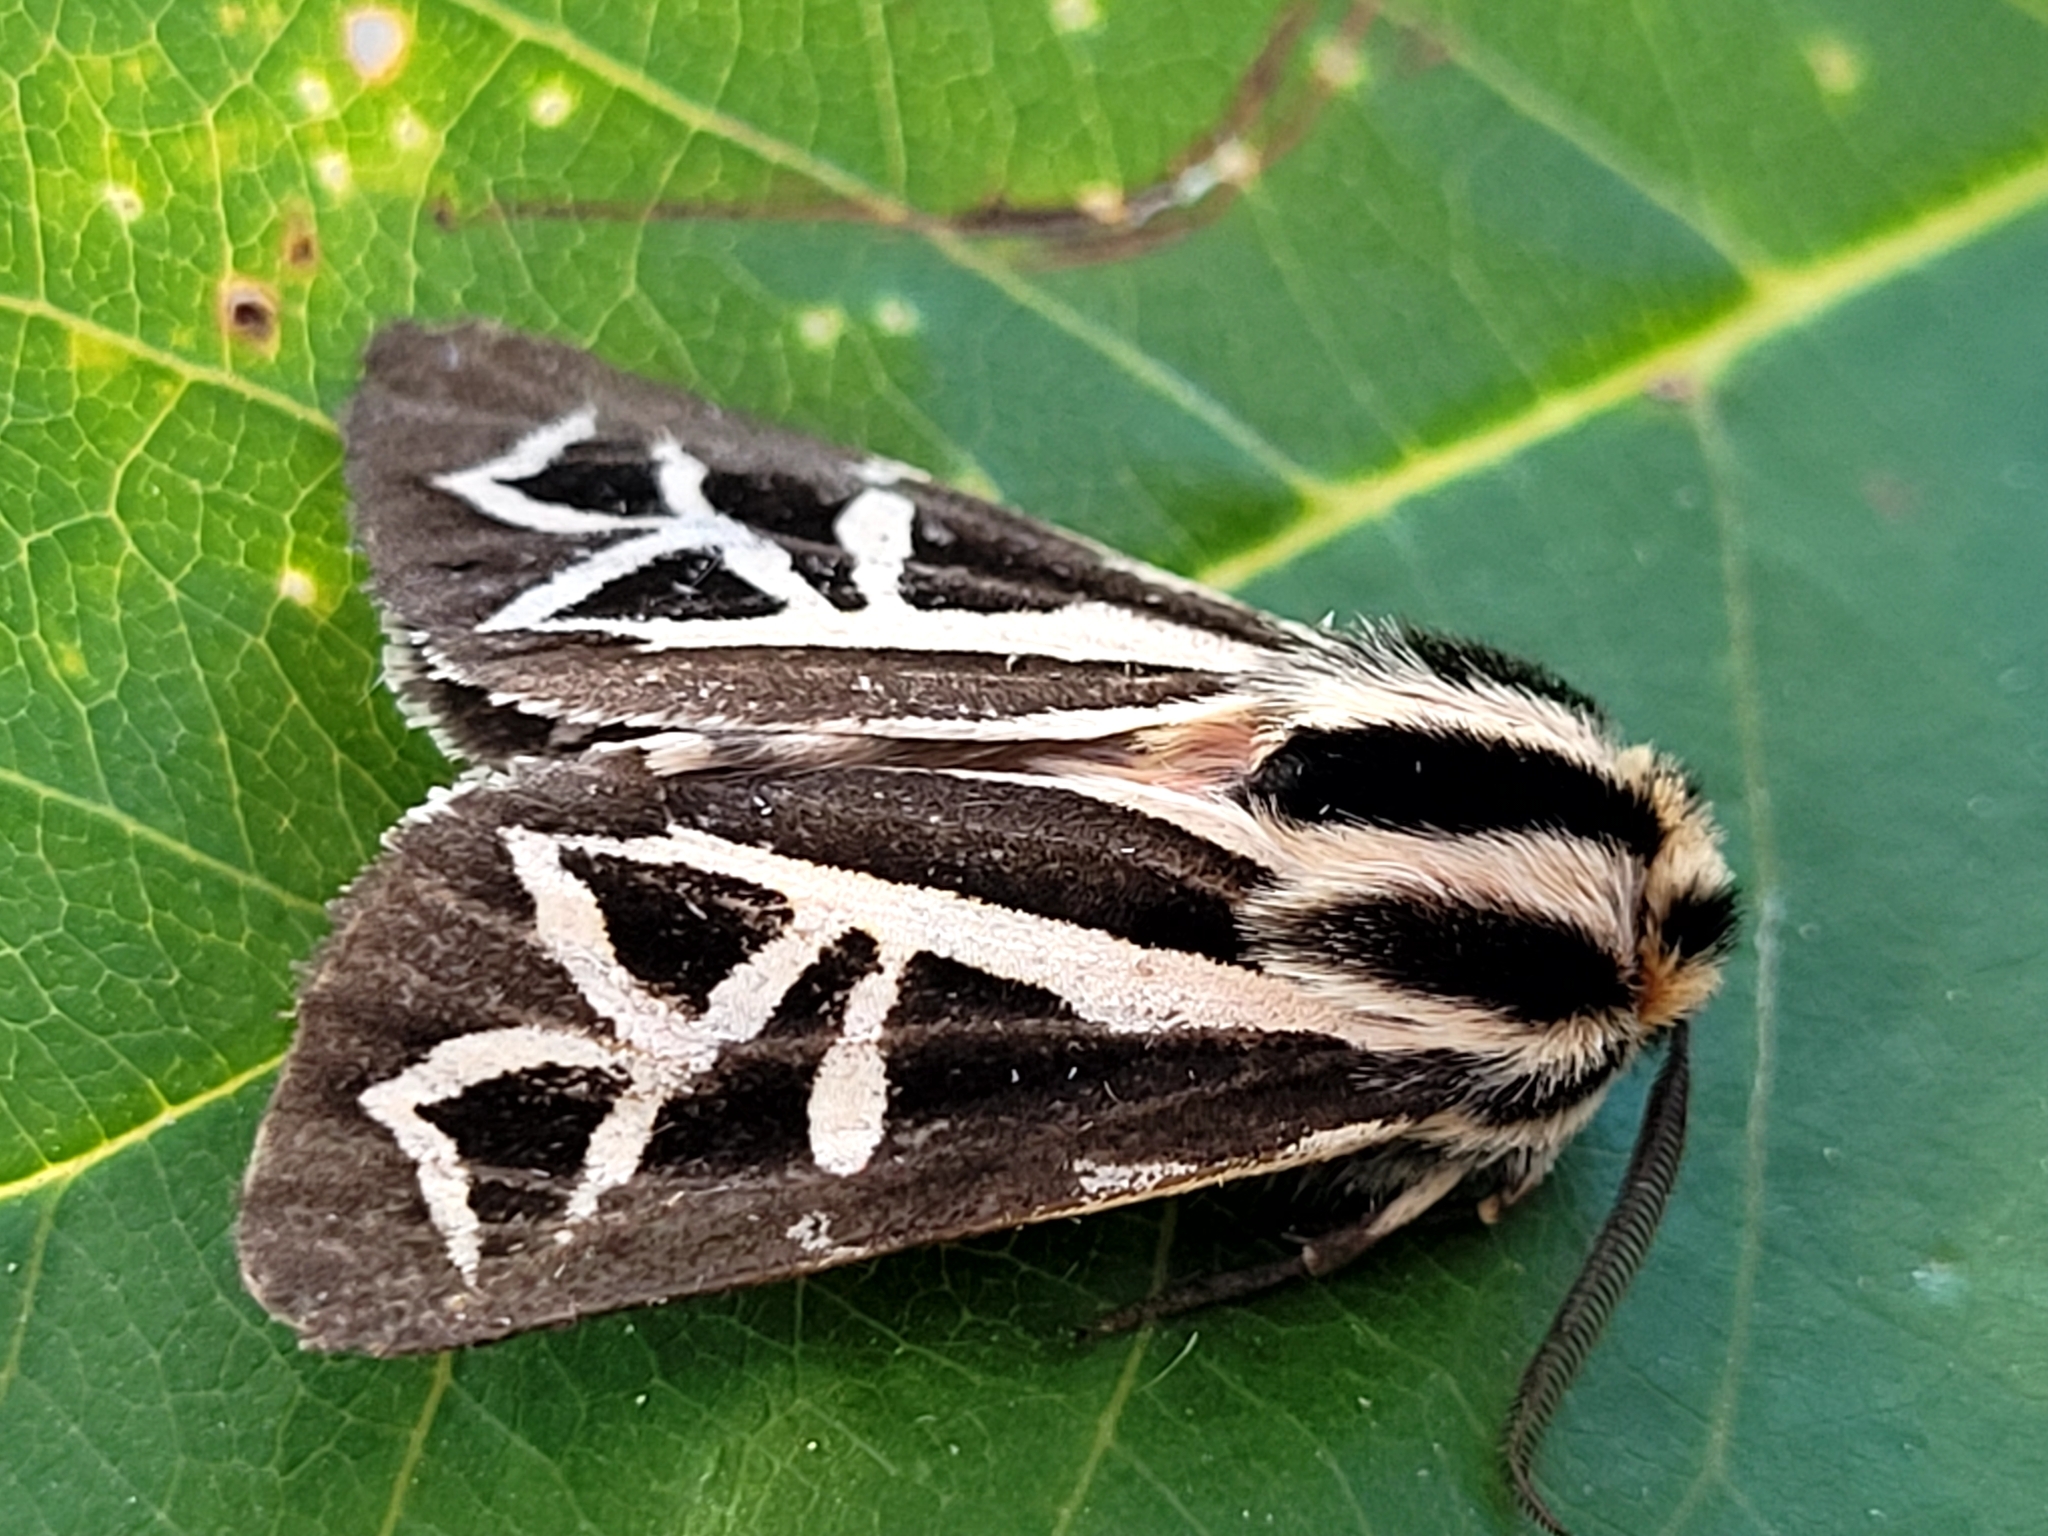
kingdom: Animalia
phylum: Arthropoda
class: Insecta
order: Lepidoptera
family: Erebidae
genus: Apantesis
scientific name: Apantesis
